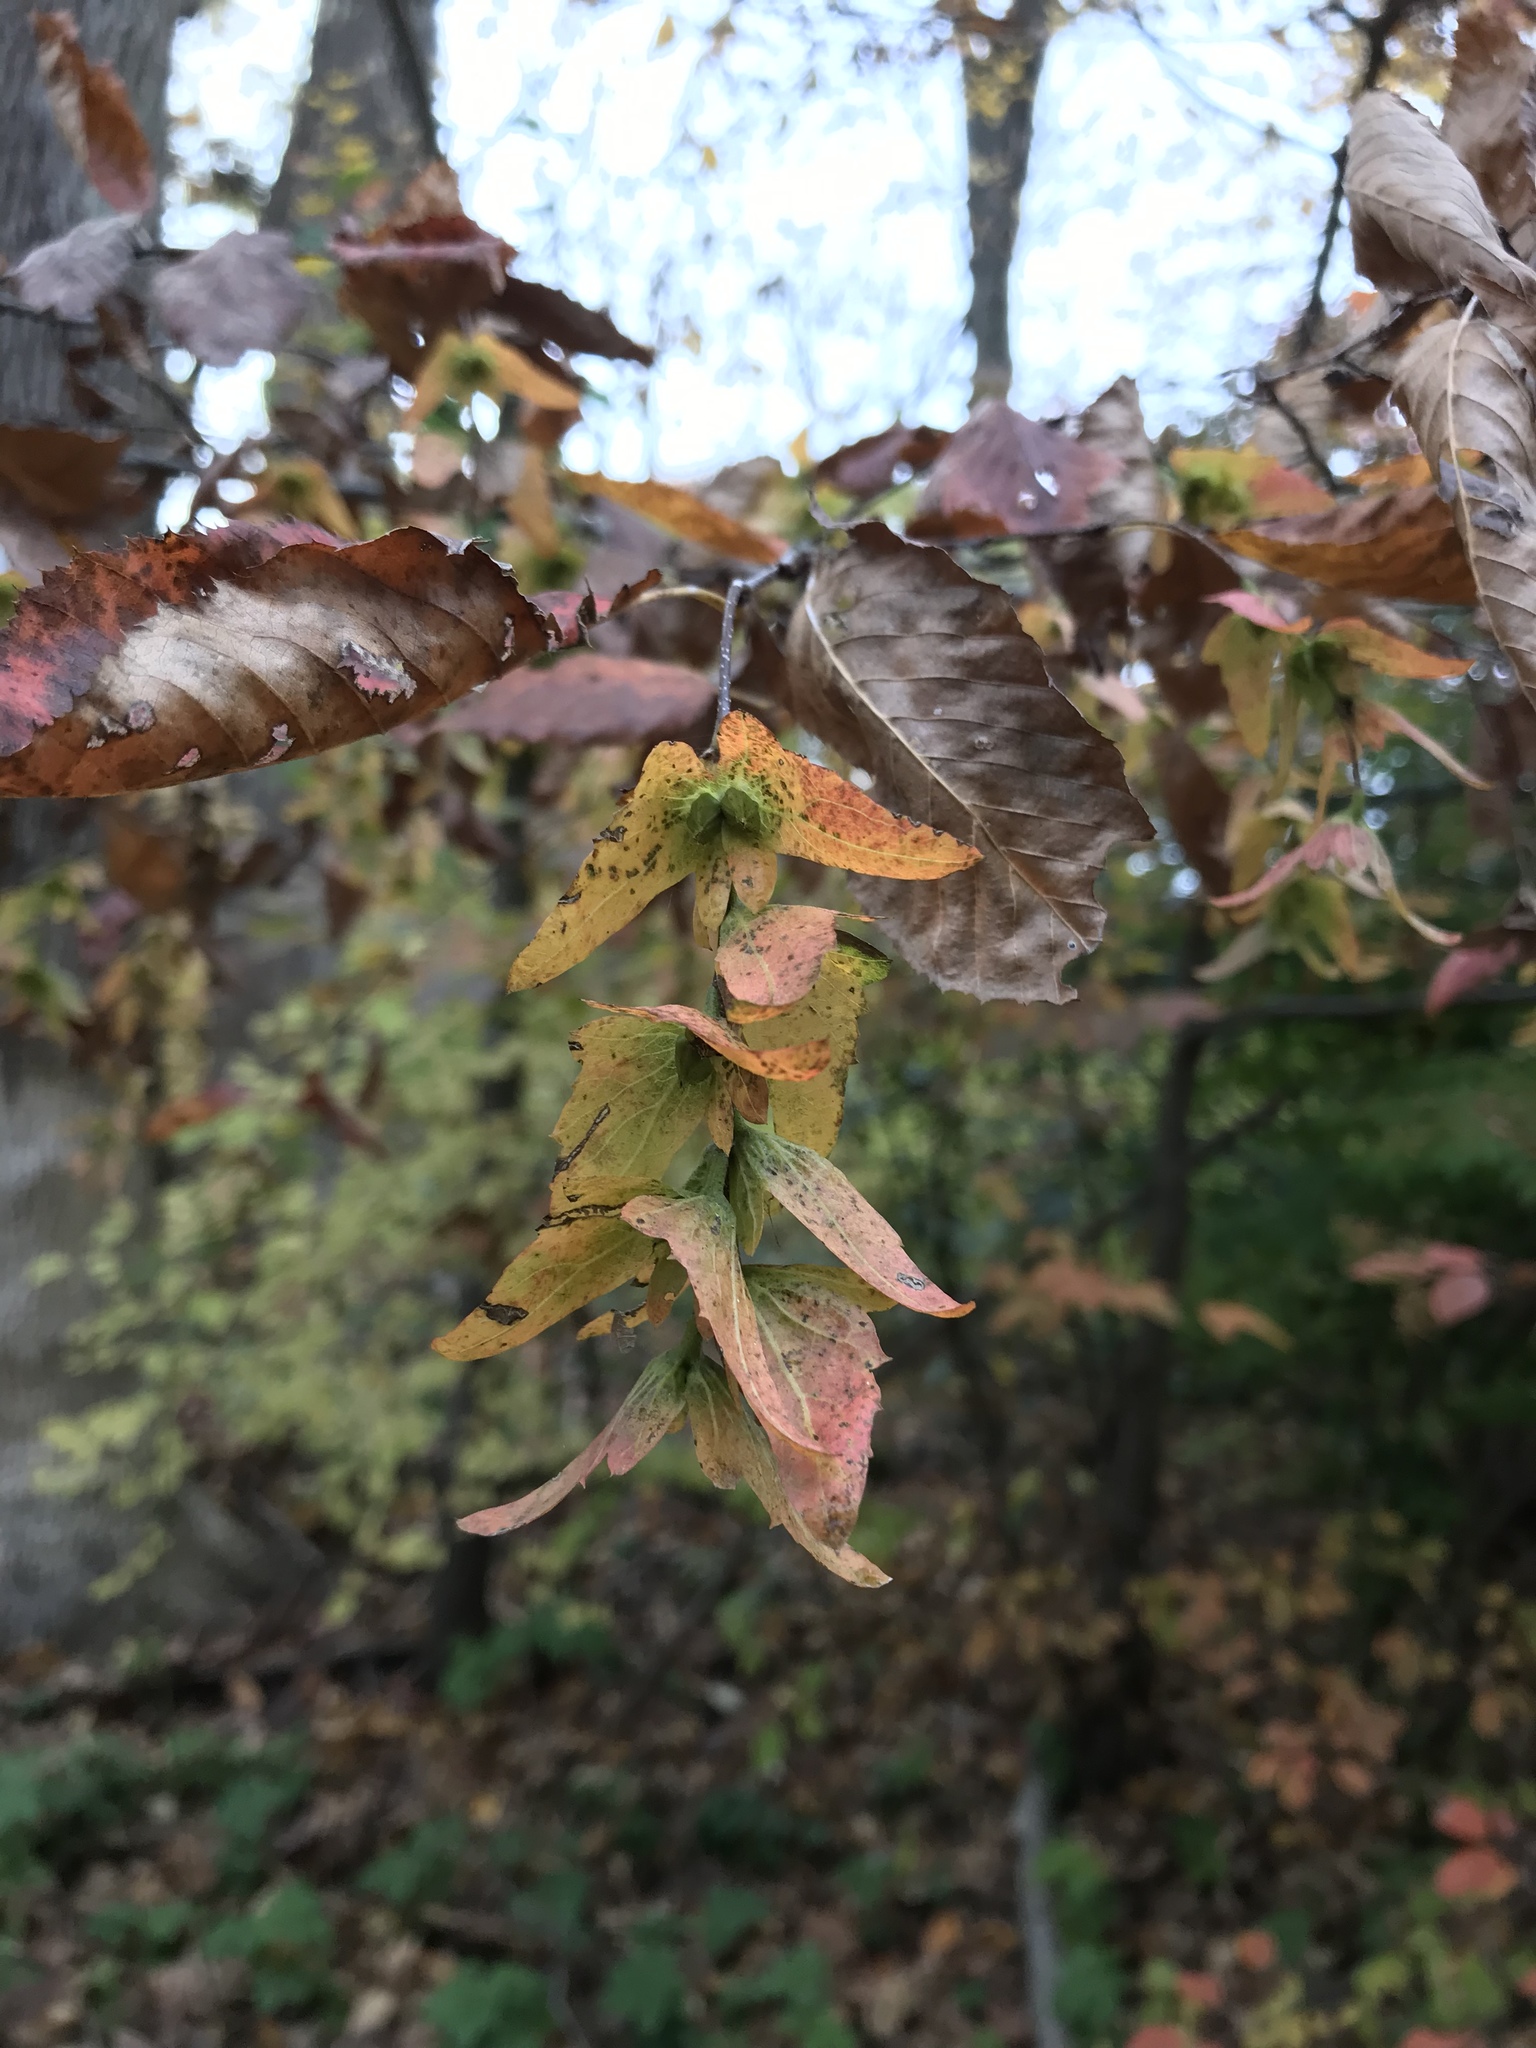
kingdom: Plantae
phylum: Tracheophyta
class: Magnoliopsida
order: Fagales
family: Betulaceae
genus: Carpinus
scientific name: Carpinus caroliniana
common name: American hornbeam
